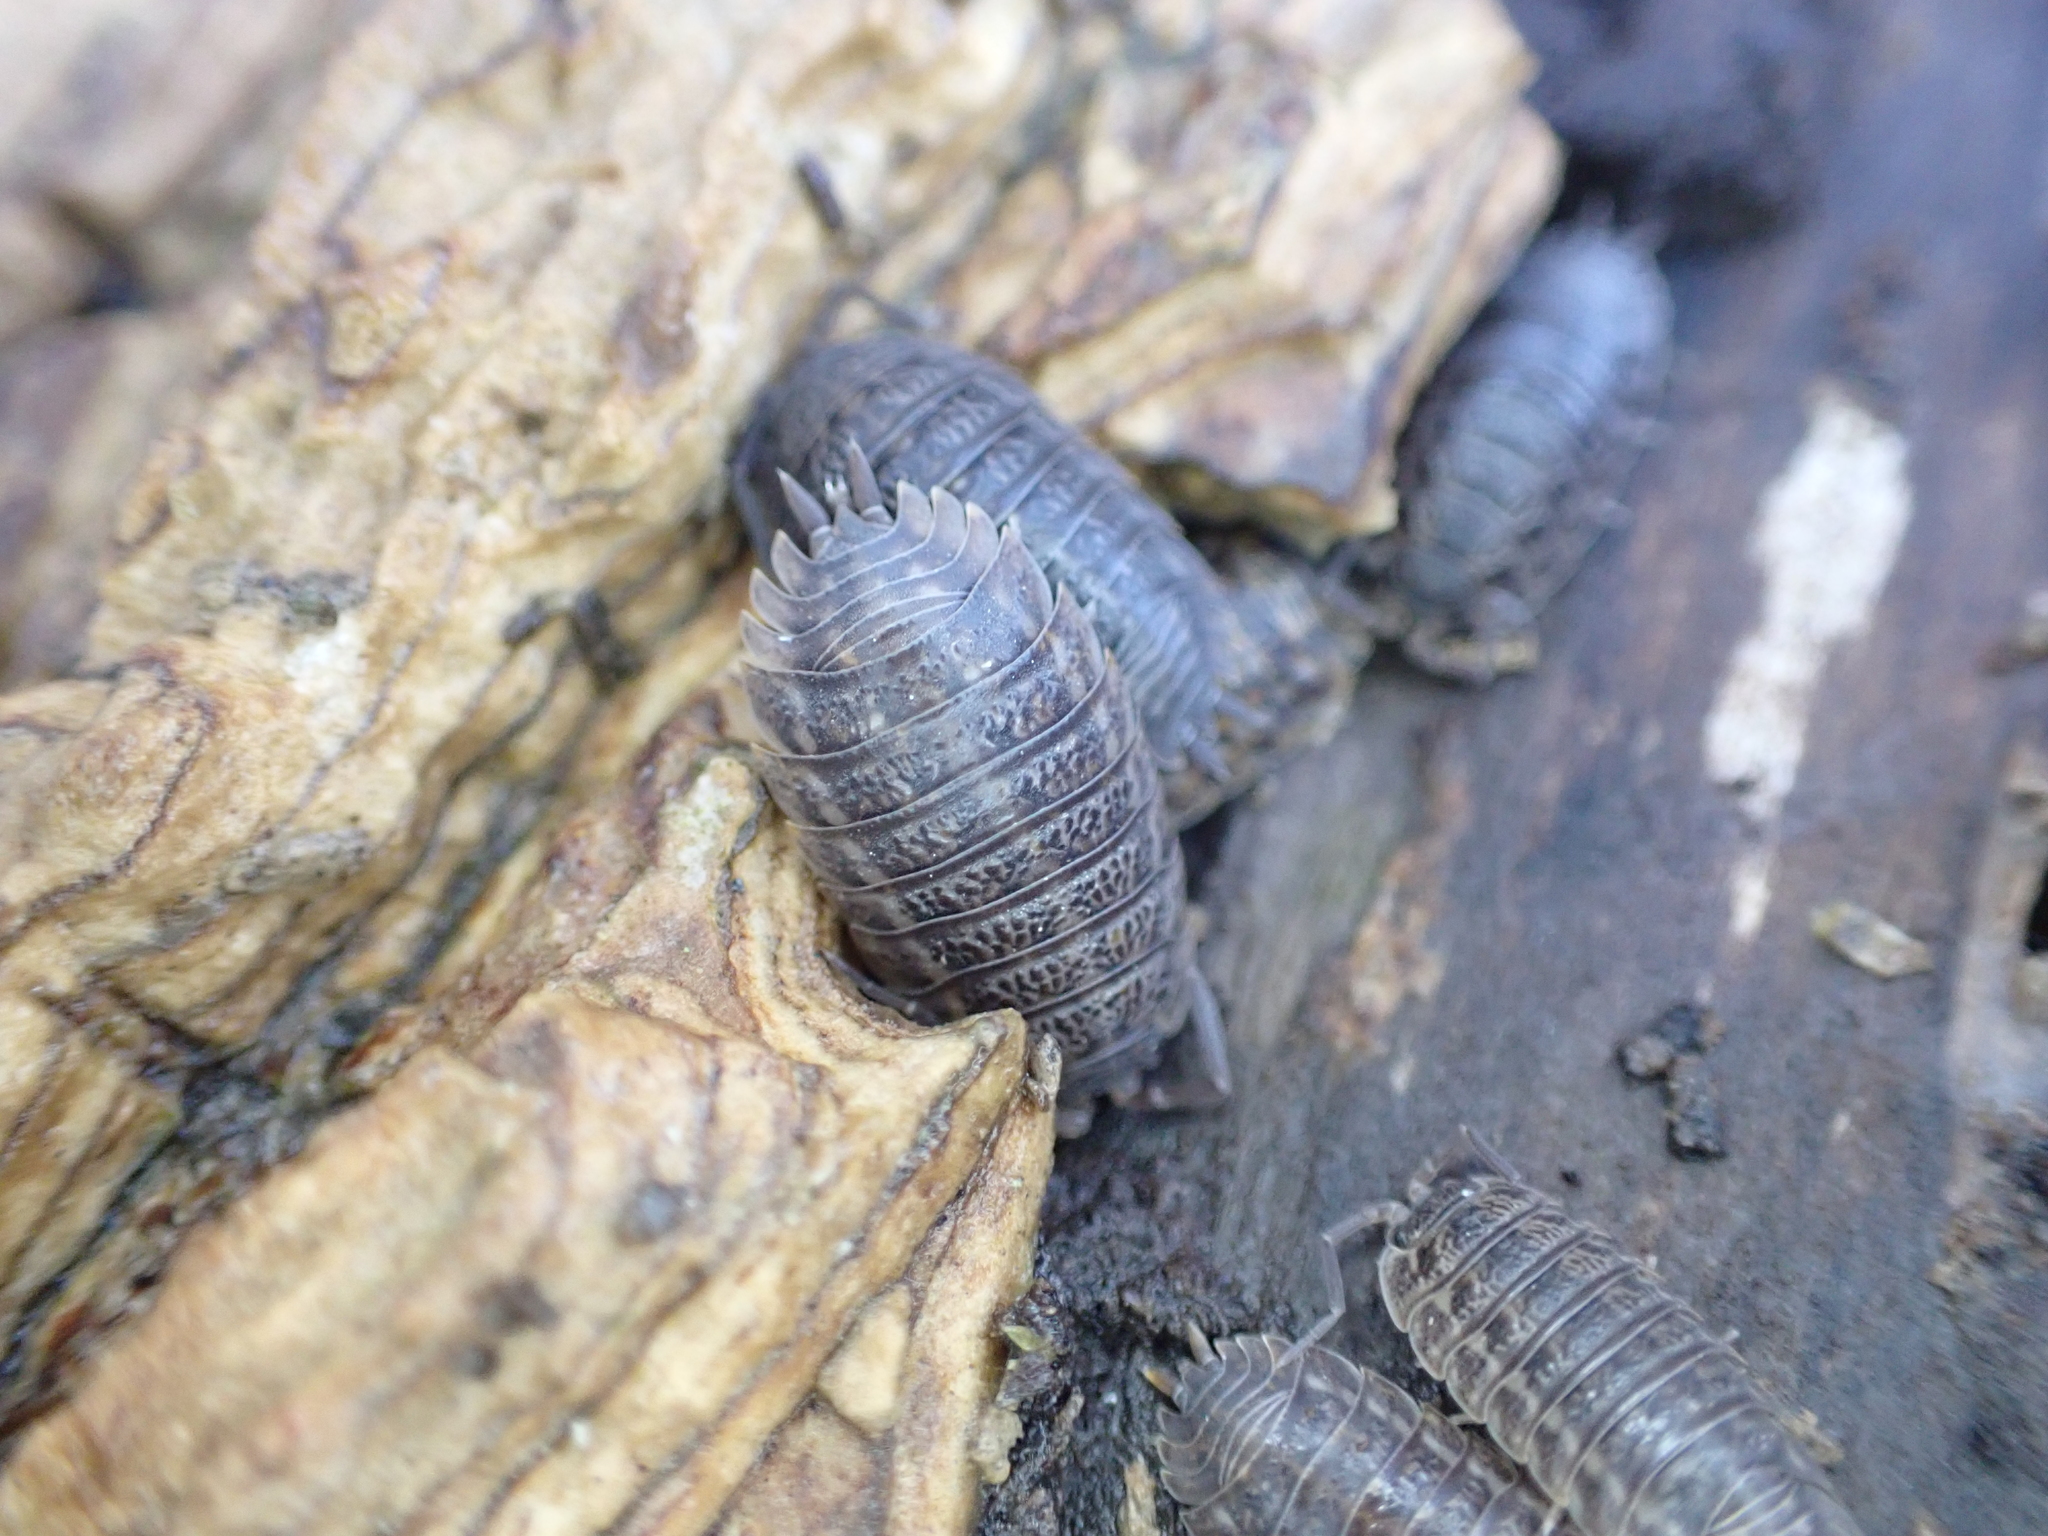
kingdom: Animalia
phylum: Arthropoda
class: Malacostraca
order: Isopoda
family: Trachelipodidae
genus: Trachelipus
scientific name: Trachelipus rathkii
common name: Isopod
